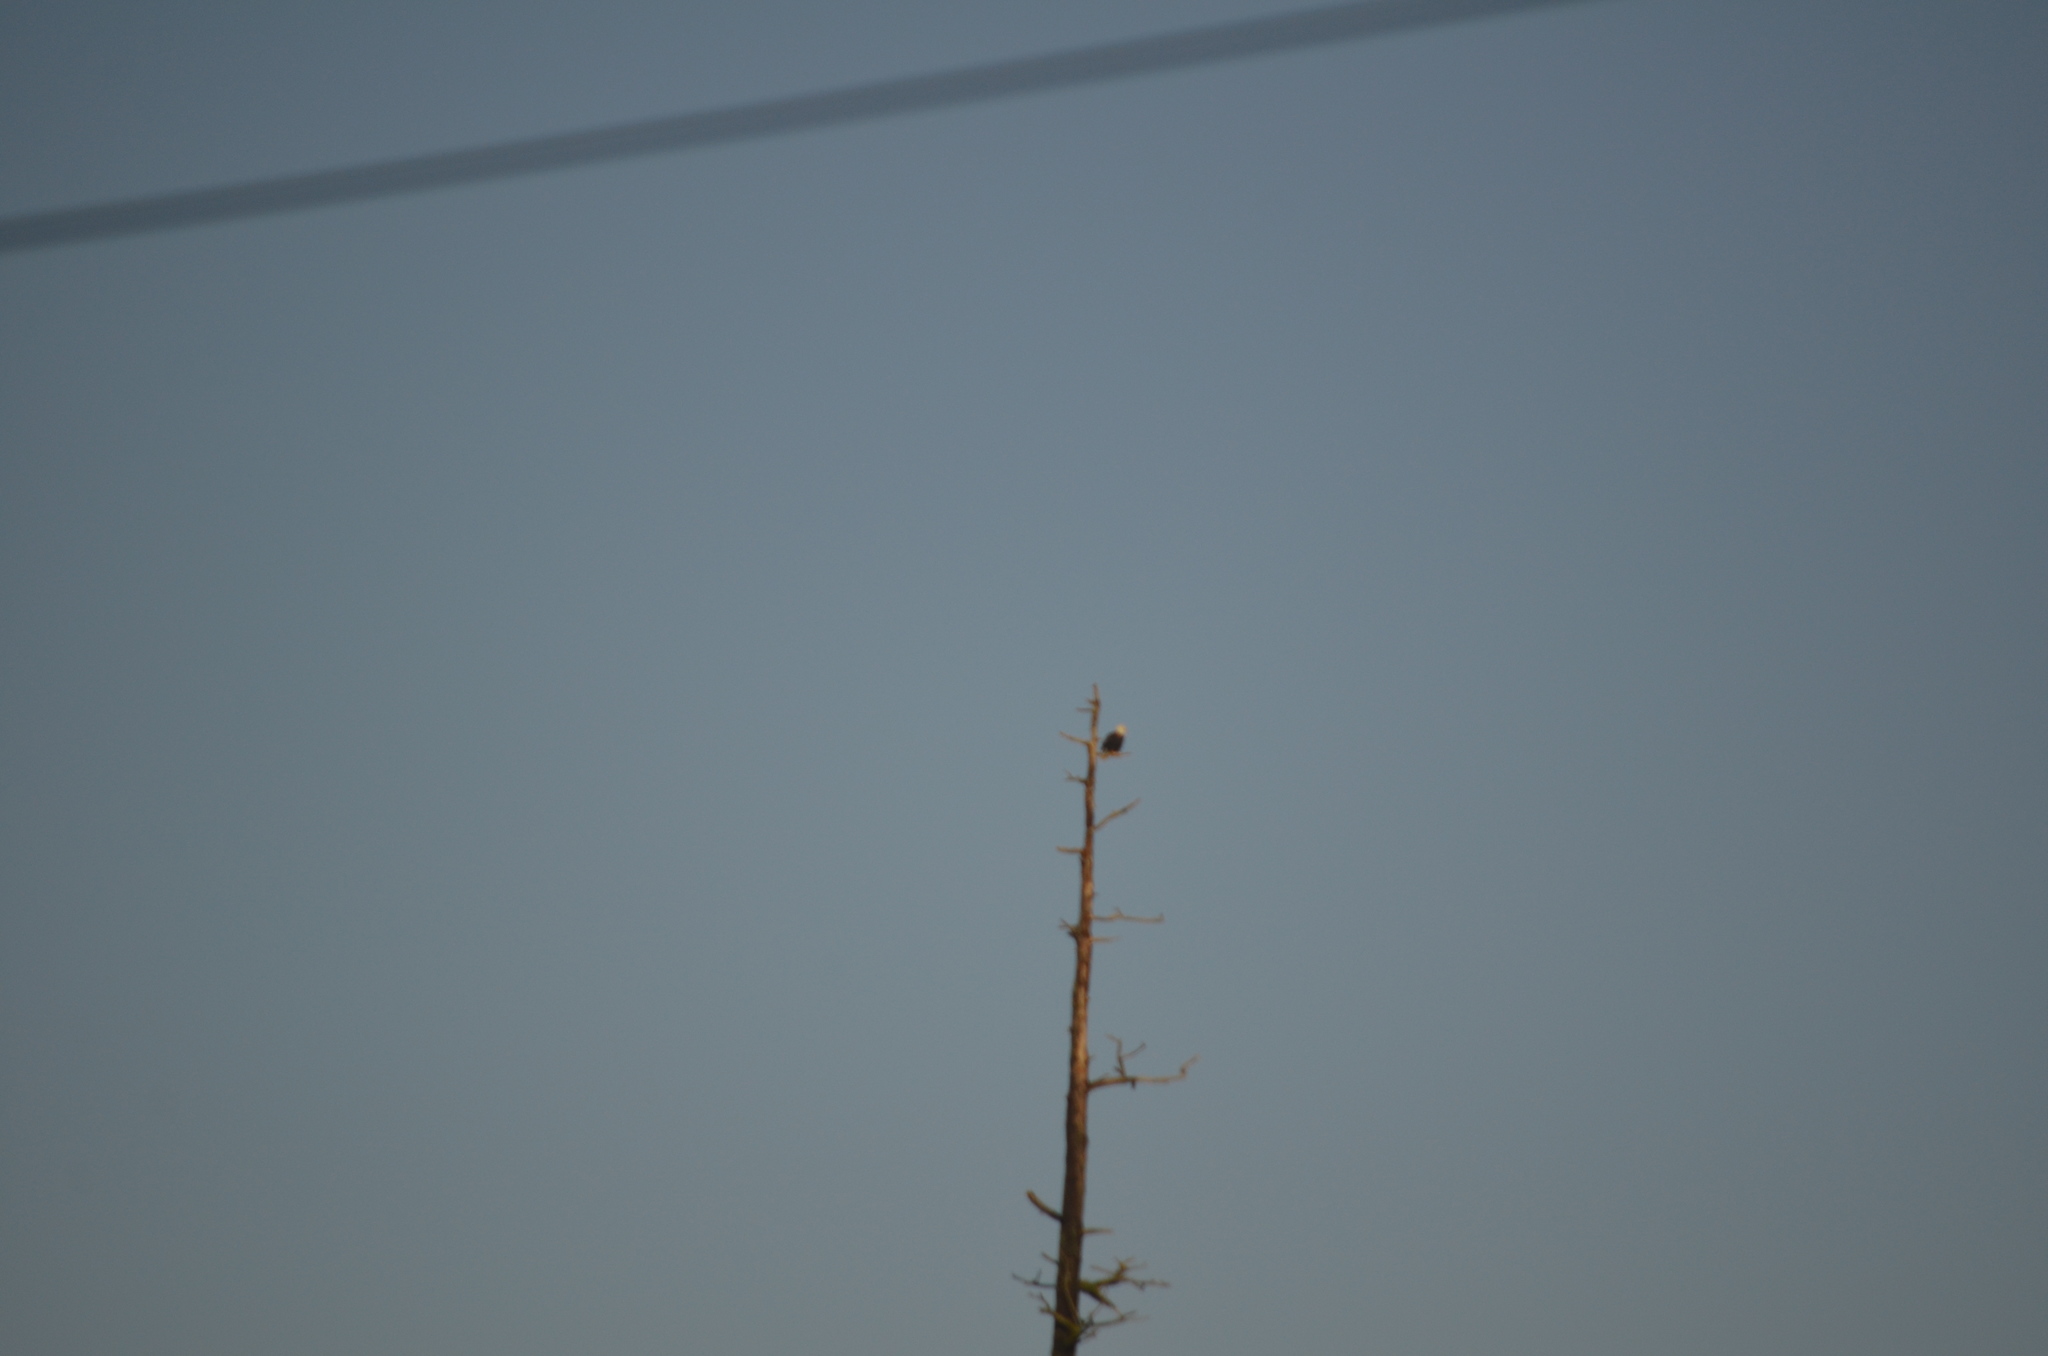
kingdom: Animalia
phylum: Chordata
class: Aves
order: Accipitriformes
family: Accipitridae
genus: Haliaeetus
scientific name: Haliaeetus leucocephalus
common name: Bald eagle
